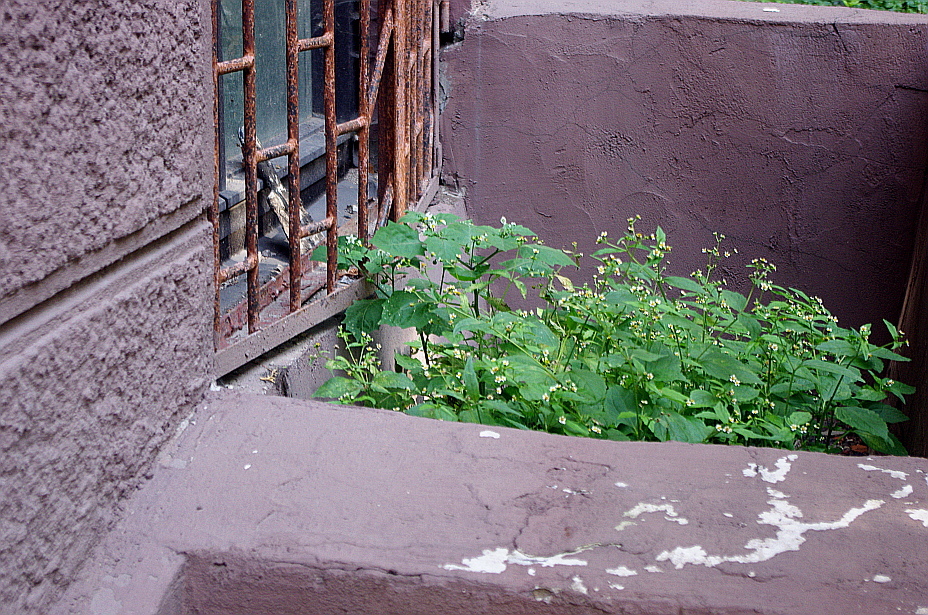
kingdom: Plantae
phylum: Tracheophyta
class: Magnoliopsida
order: Solanales
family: Solanaceae
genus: Solanum
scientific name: Solanum nigrum
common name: Black nightshade
